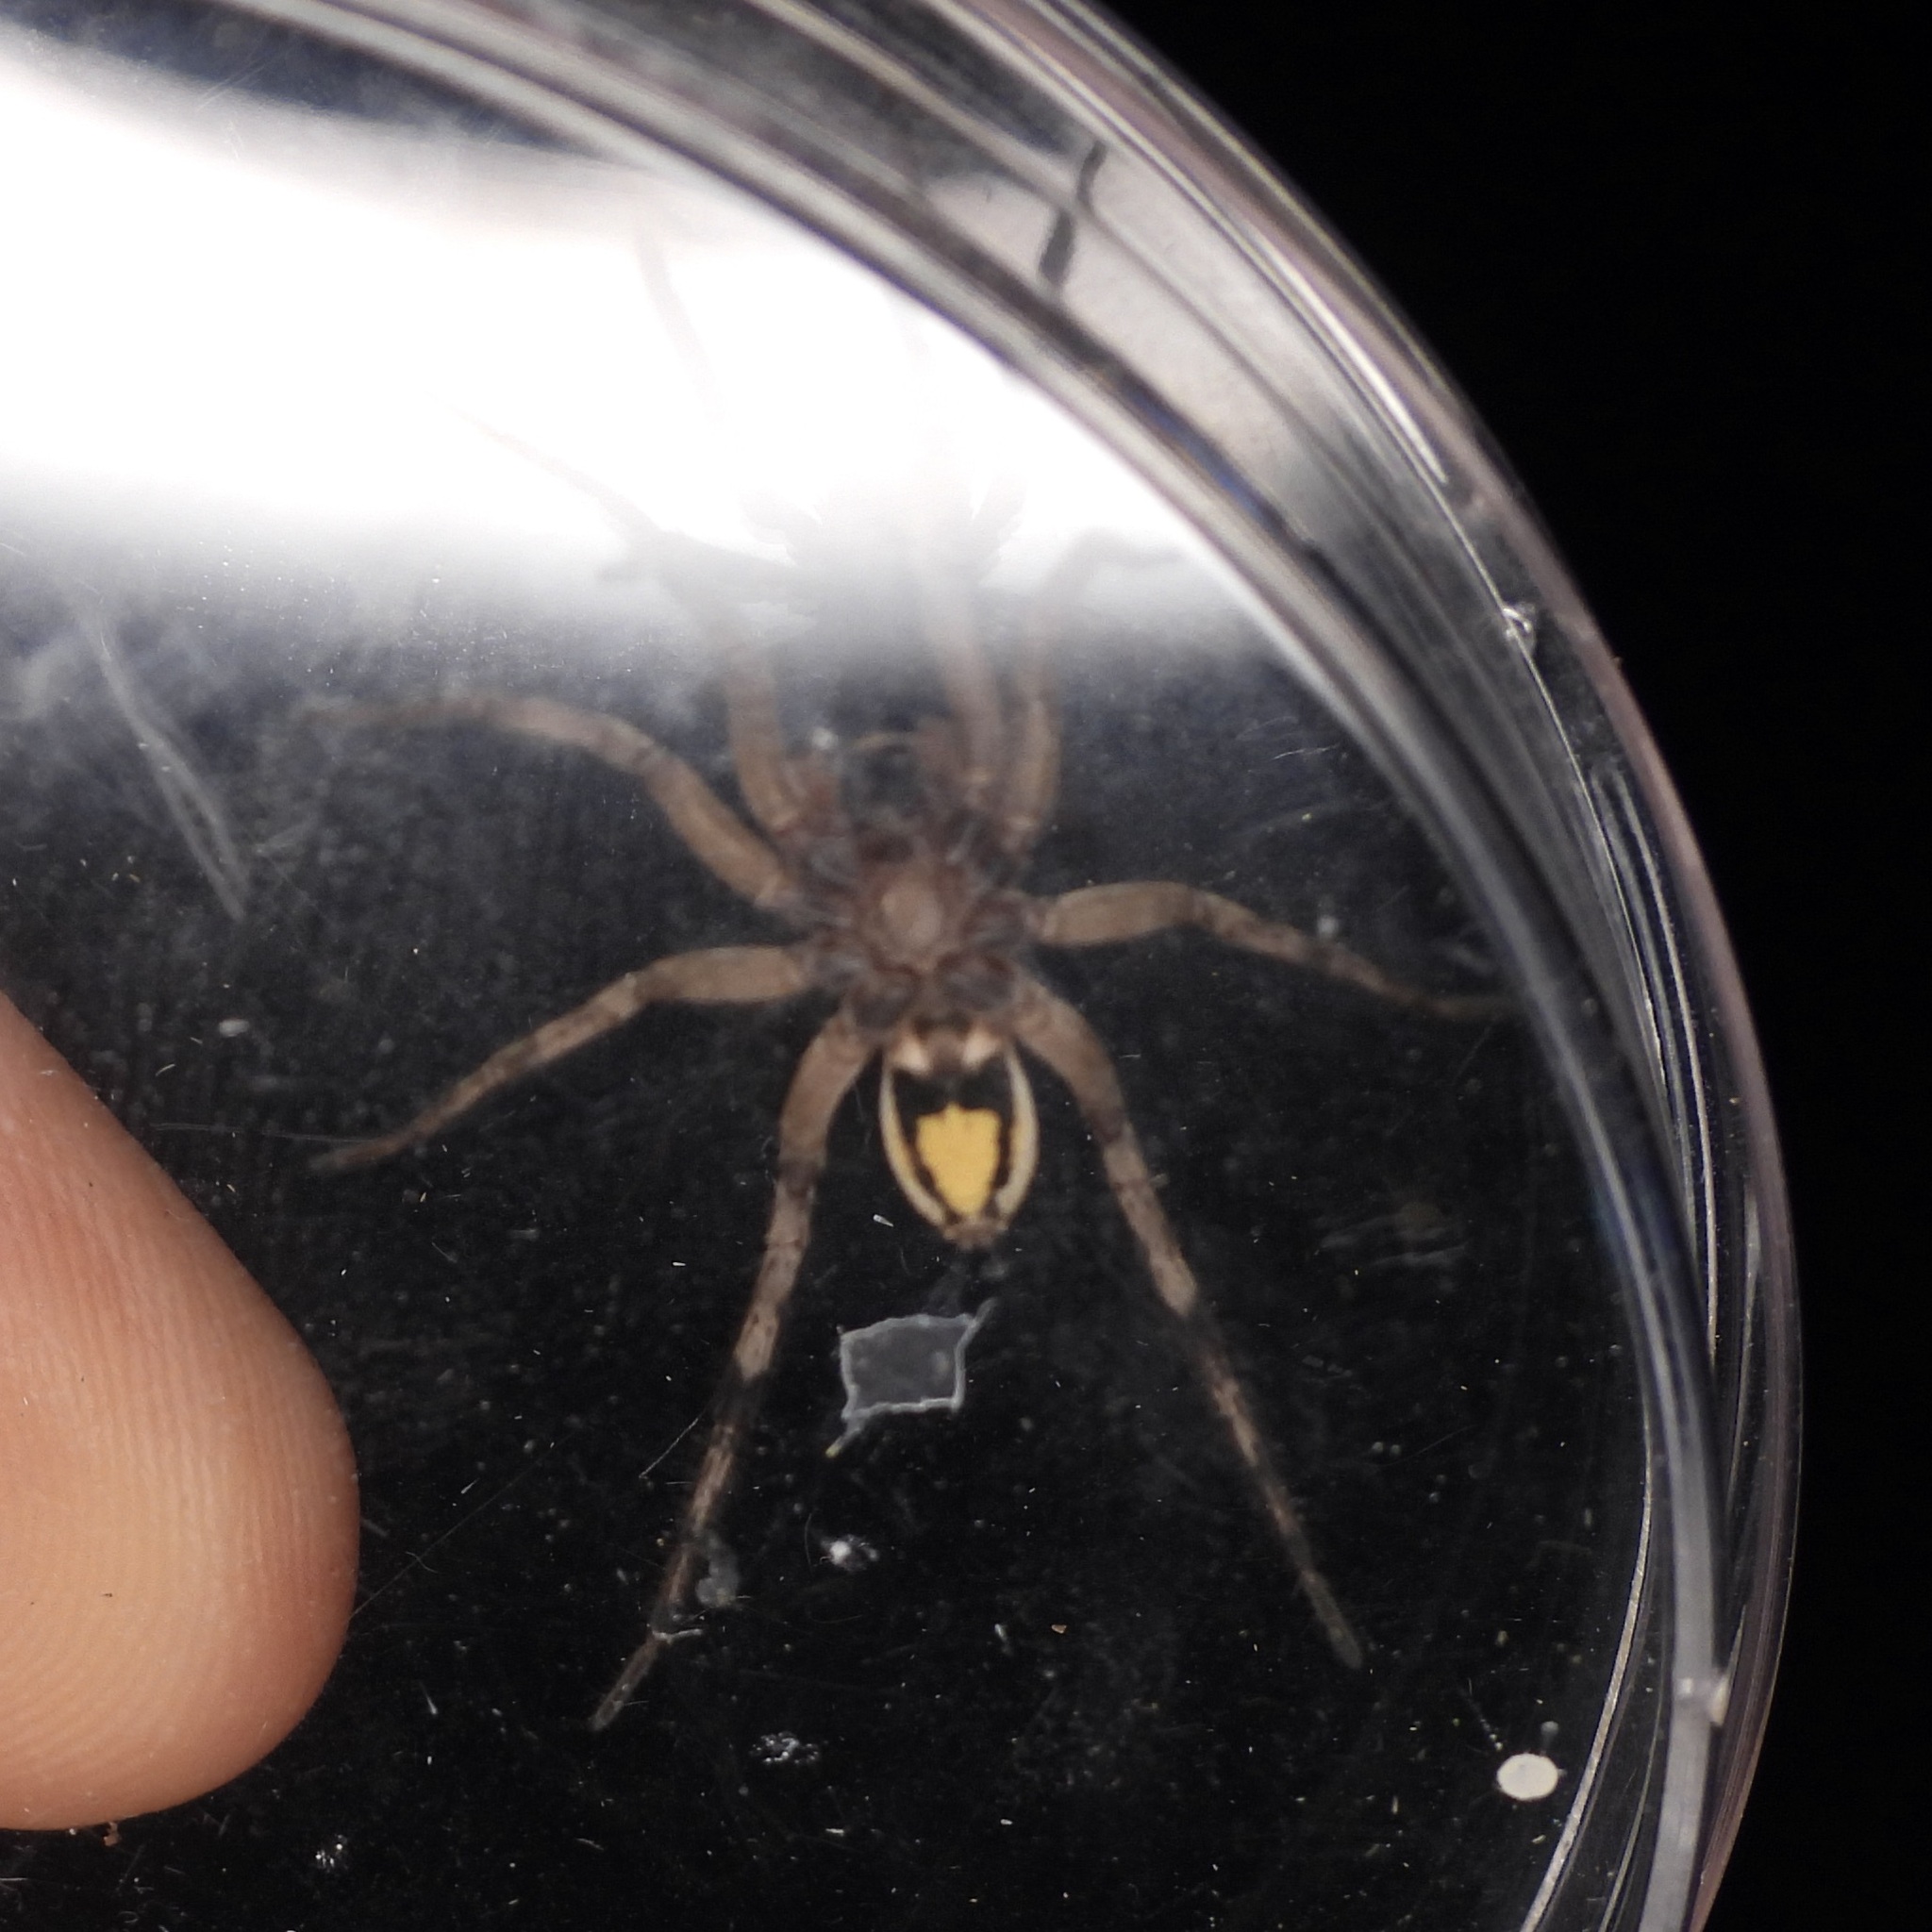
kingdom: Animalia
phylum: Arthropoda
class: Arachnida
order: Araneae
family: Lycosidae
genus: Schizocosa
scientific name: Schizocosa avida
